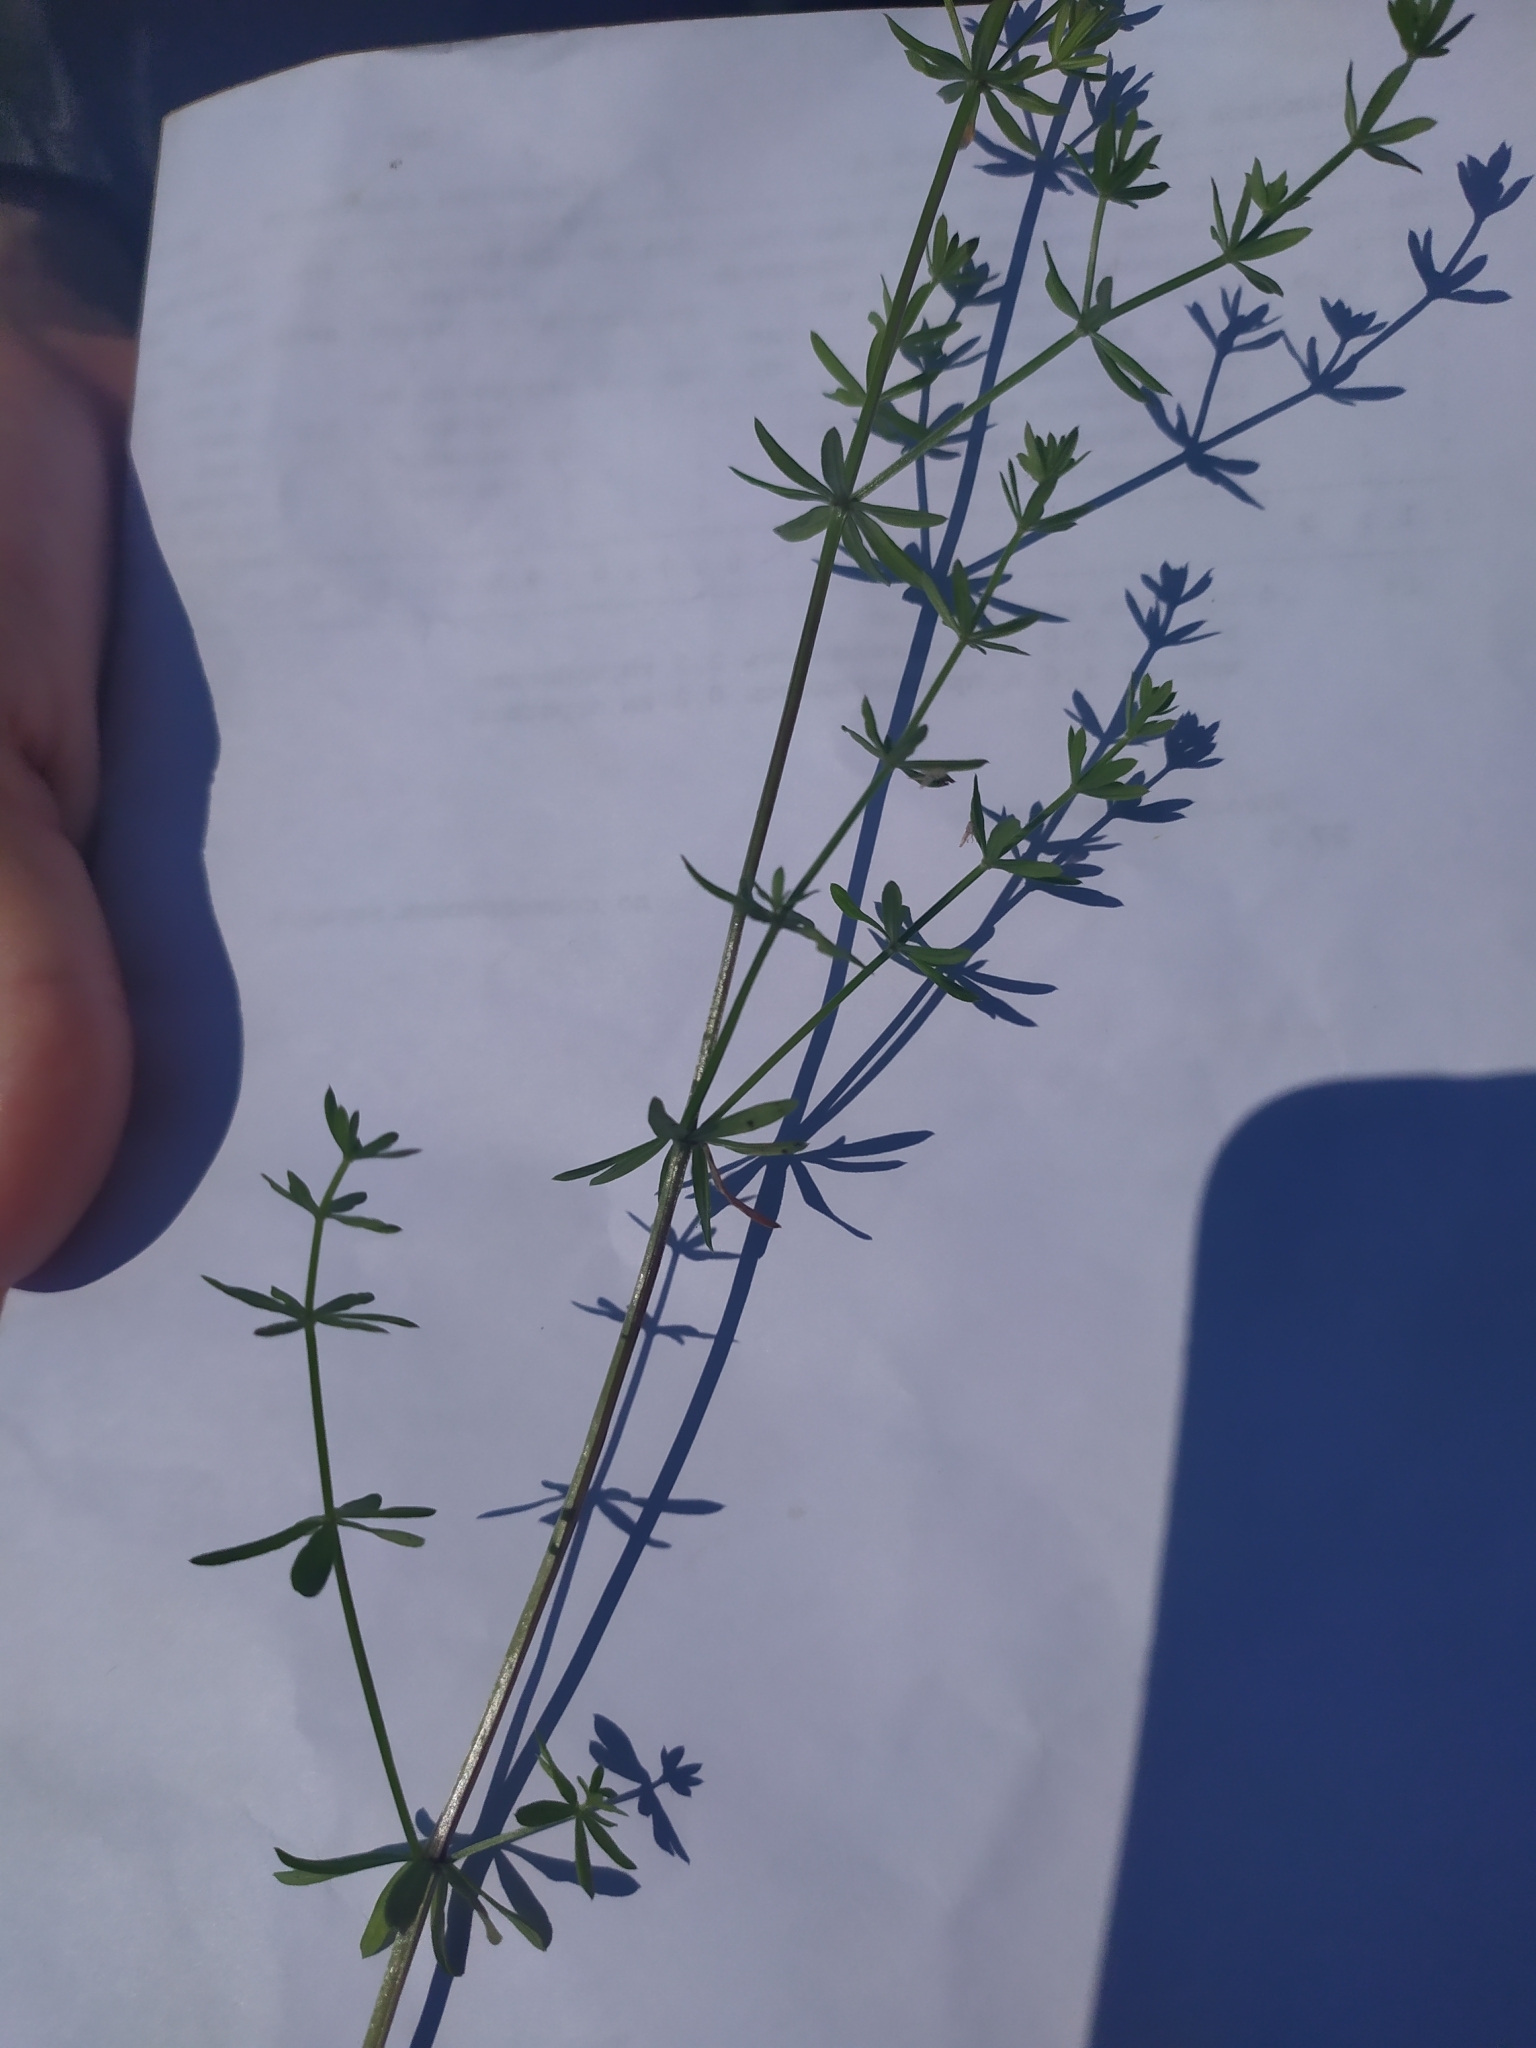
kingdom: Plantae
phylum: Tracheophyta
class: Magnoliopsida
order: Gentianales
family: Rubiaceae
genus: Galium
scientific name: Galium mollugo
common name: Hedge bedstraw
